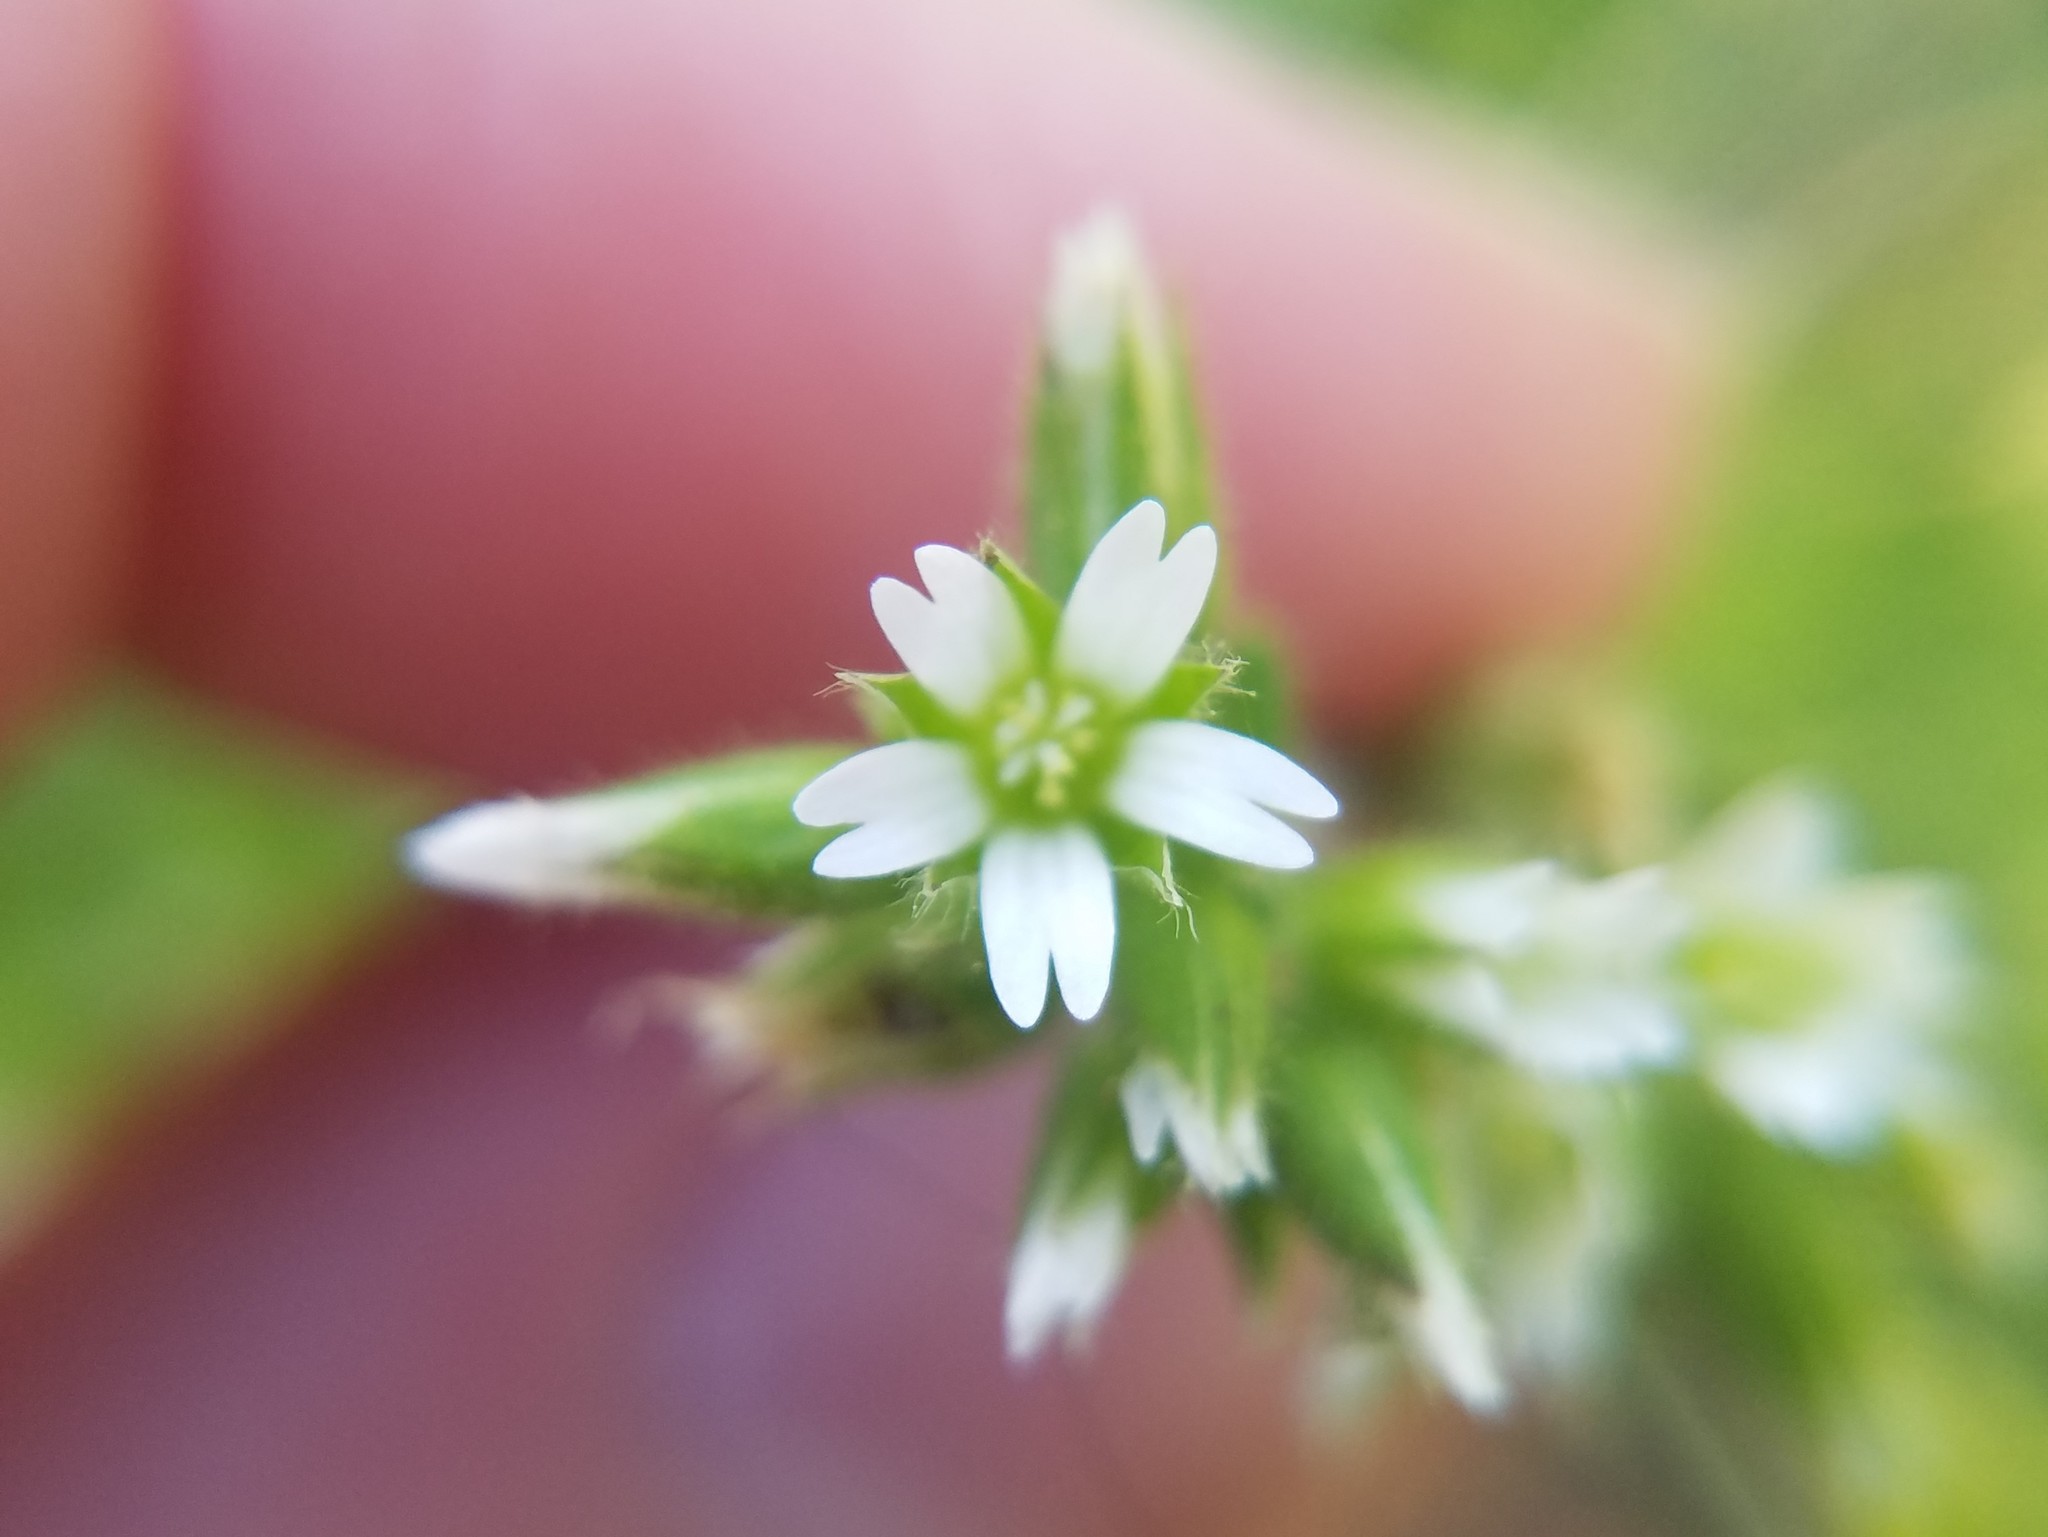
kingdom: Plantae
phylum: Tracheophyta
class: Magnoliopsida
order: Caryophyllales
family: Caryophyllaceae
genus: Cerastium
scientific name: Cerastium glomeratum
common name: Sticky chickweed
